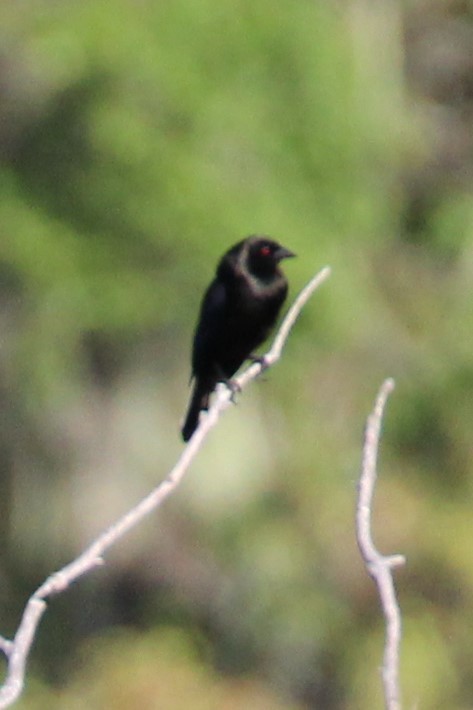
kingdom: Animalia
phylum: Chordata
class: Aves
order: Passeriformes
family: Icteridae
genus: Molothrus
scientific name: Molothrus aeneus
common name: Bronzed cowbird
